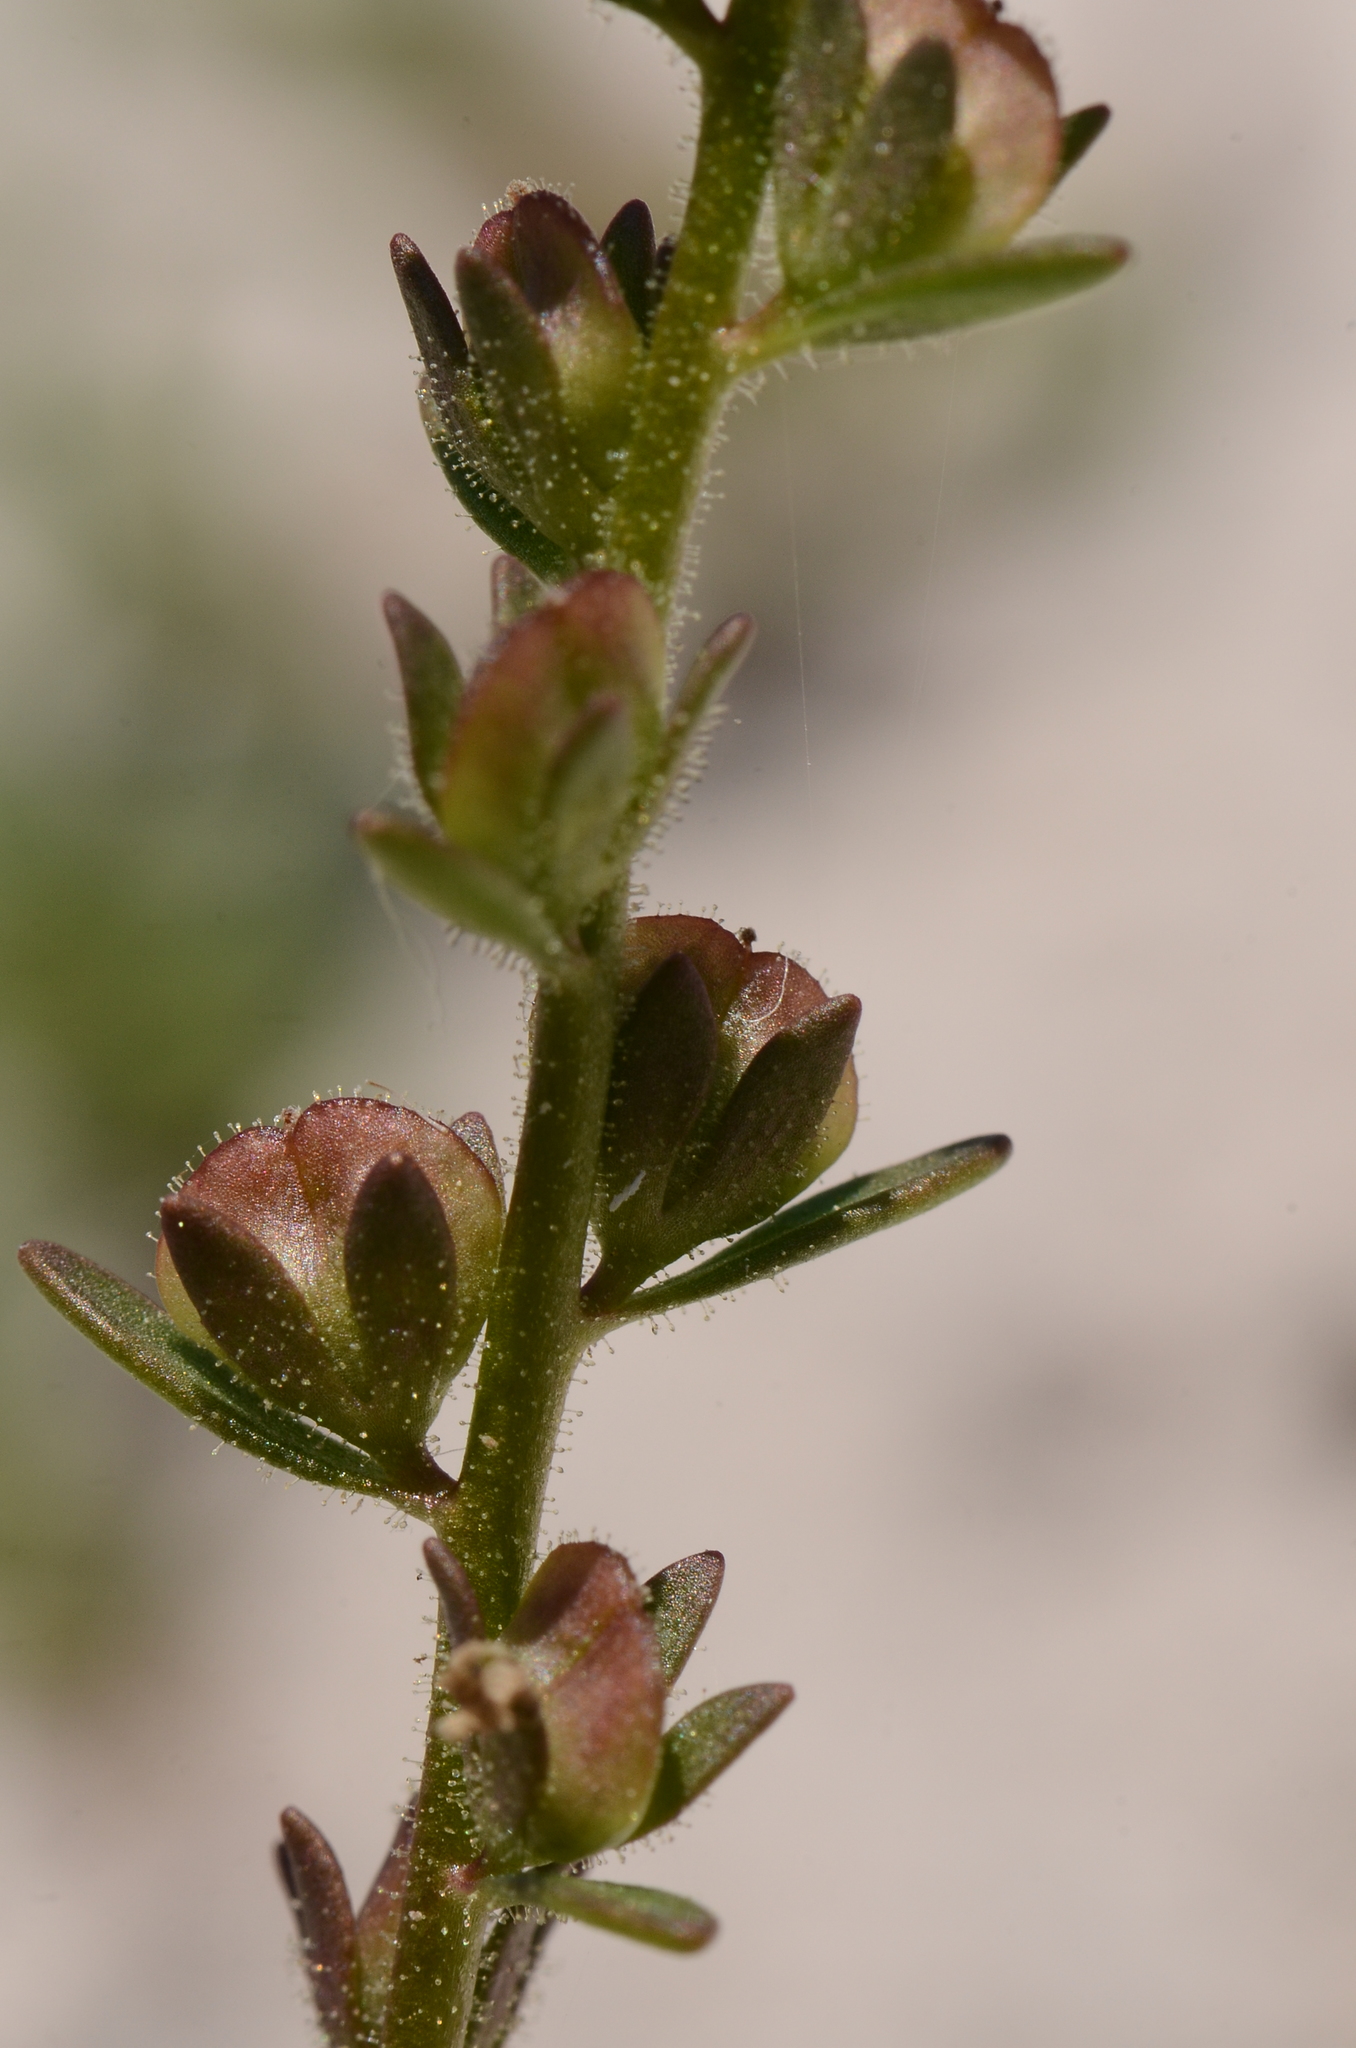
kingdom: Plantae
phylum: Tracheophyta
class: Magnoliopsida
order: Lamiales
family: Plantaginaceae
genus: Veronica
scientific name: Veronica peregrina
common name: Neckweed
